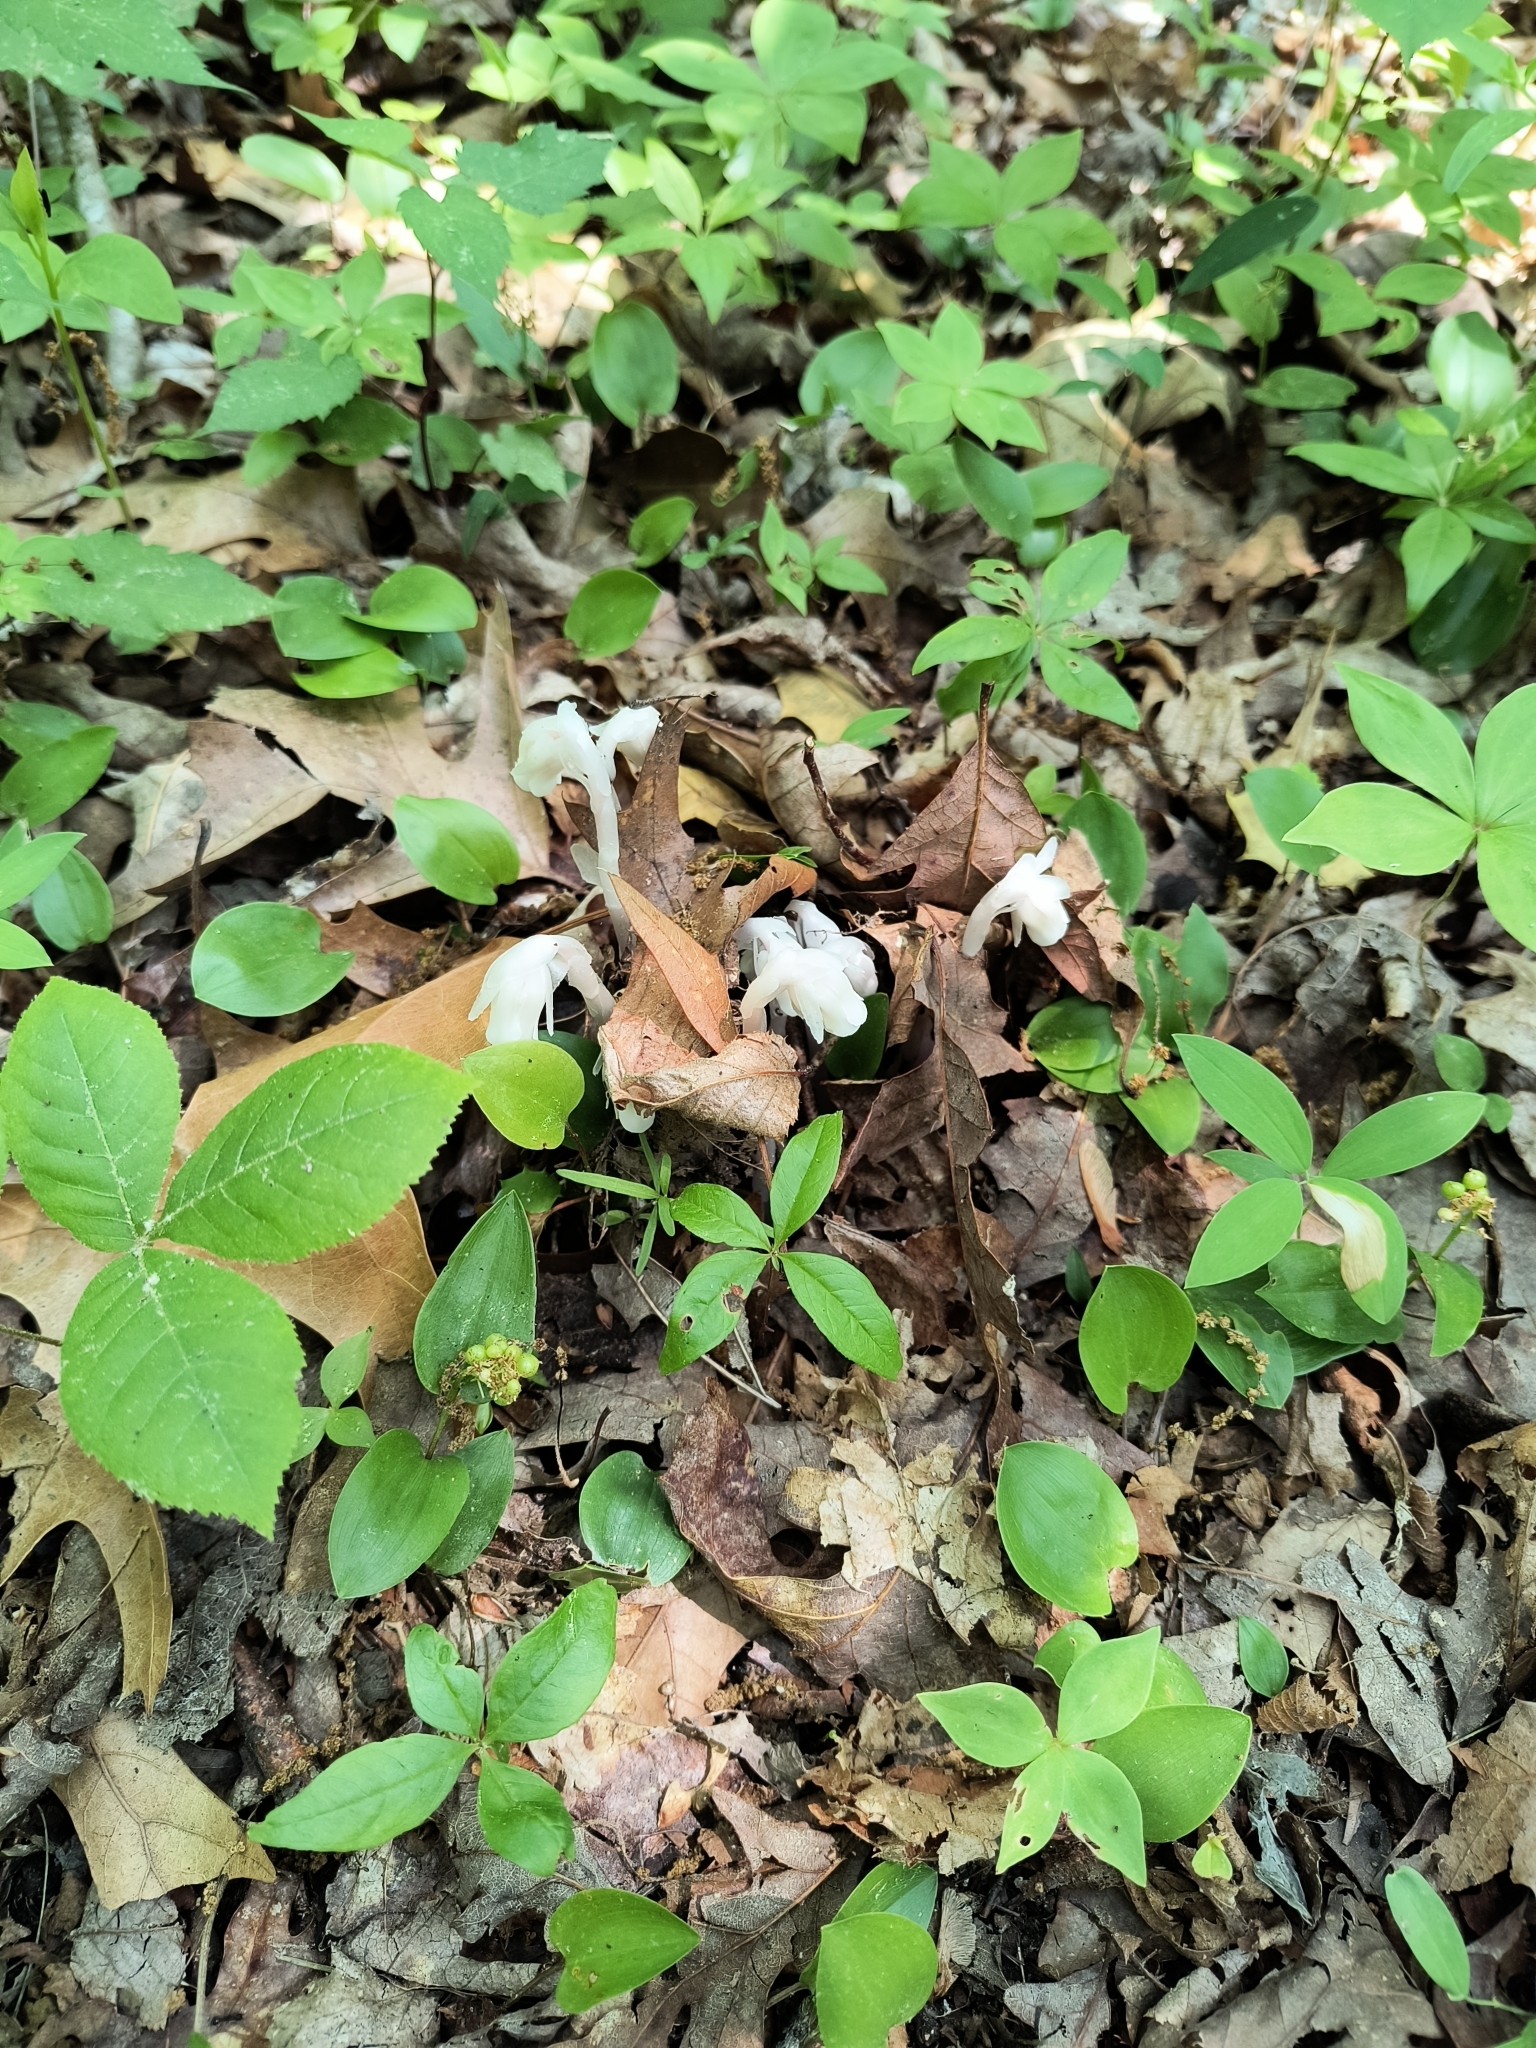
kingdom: Plantae
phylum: Tracheophyta
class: Magnoliopsida
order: Ericales
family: Ericaceae
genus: Monotropa
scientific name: Monotropa uniflora
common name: Convulsion root
